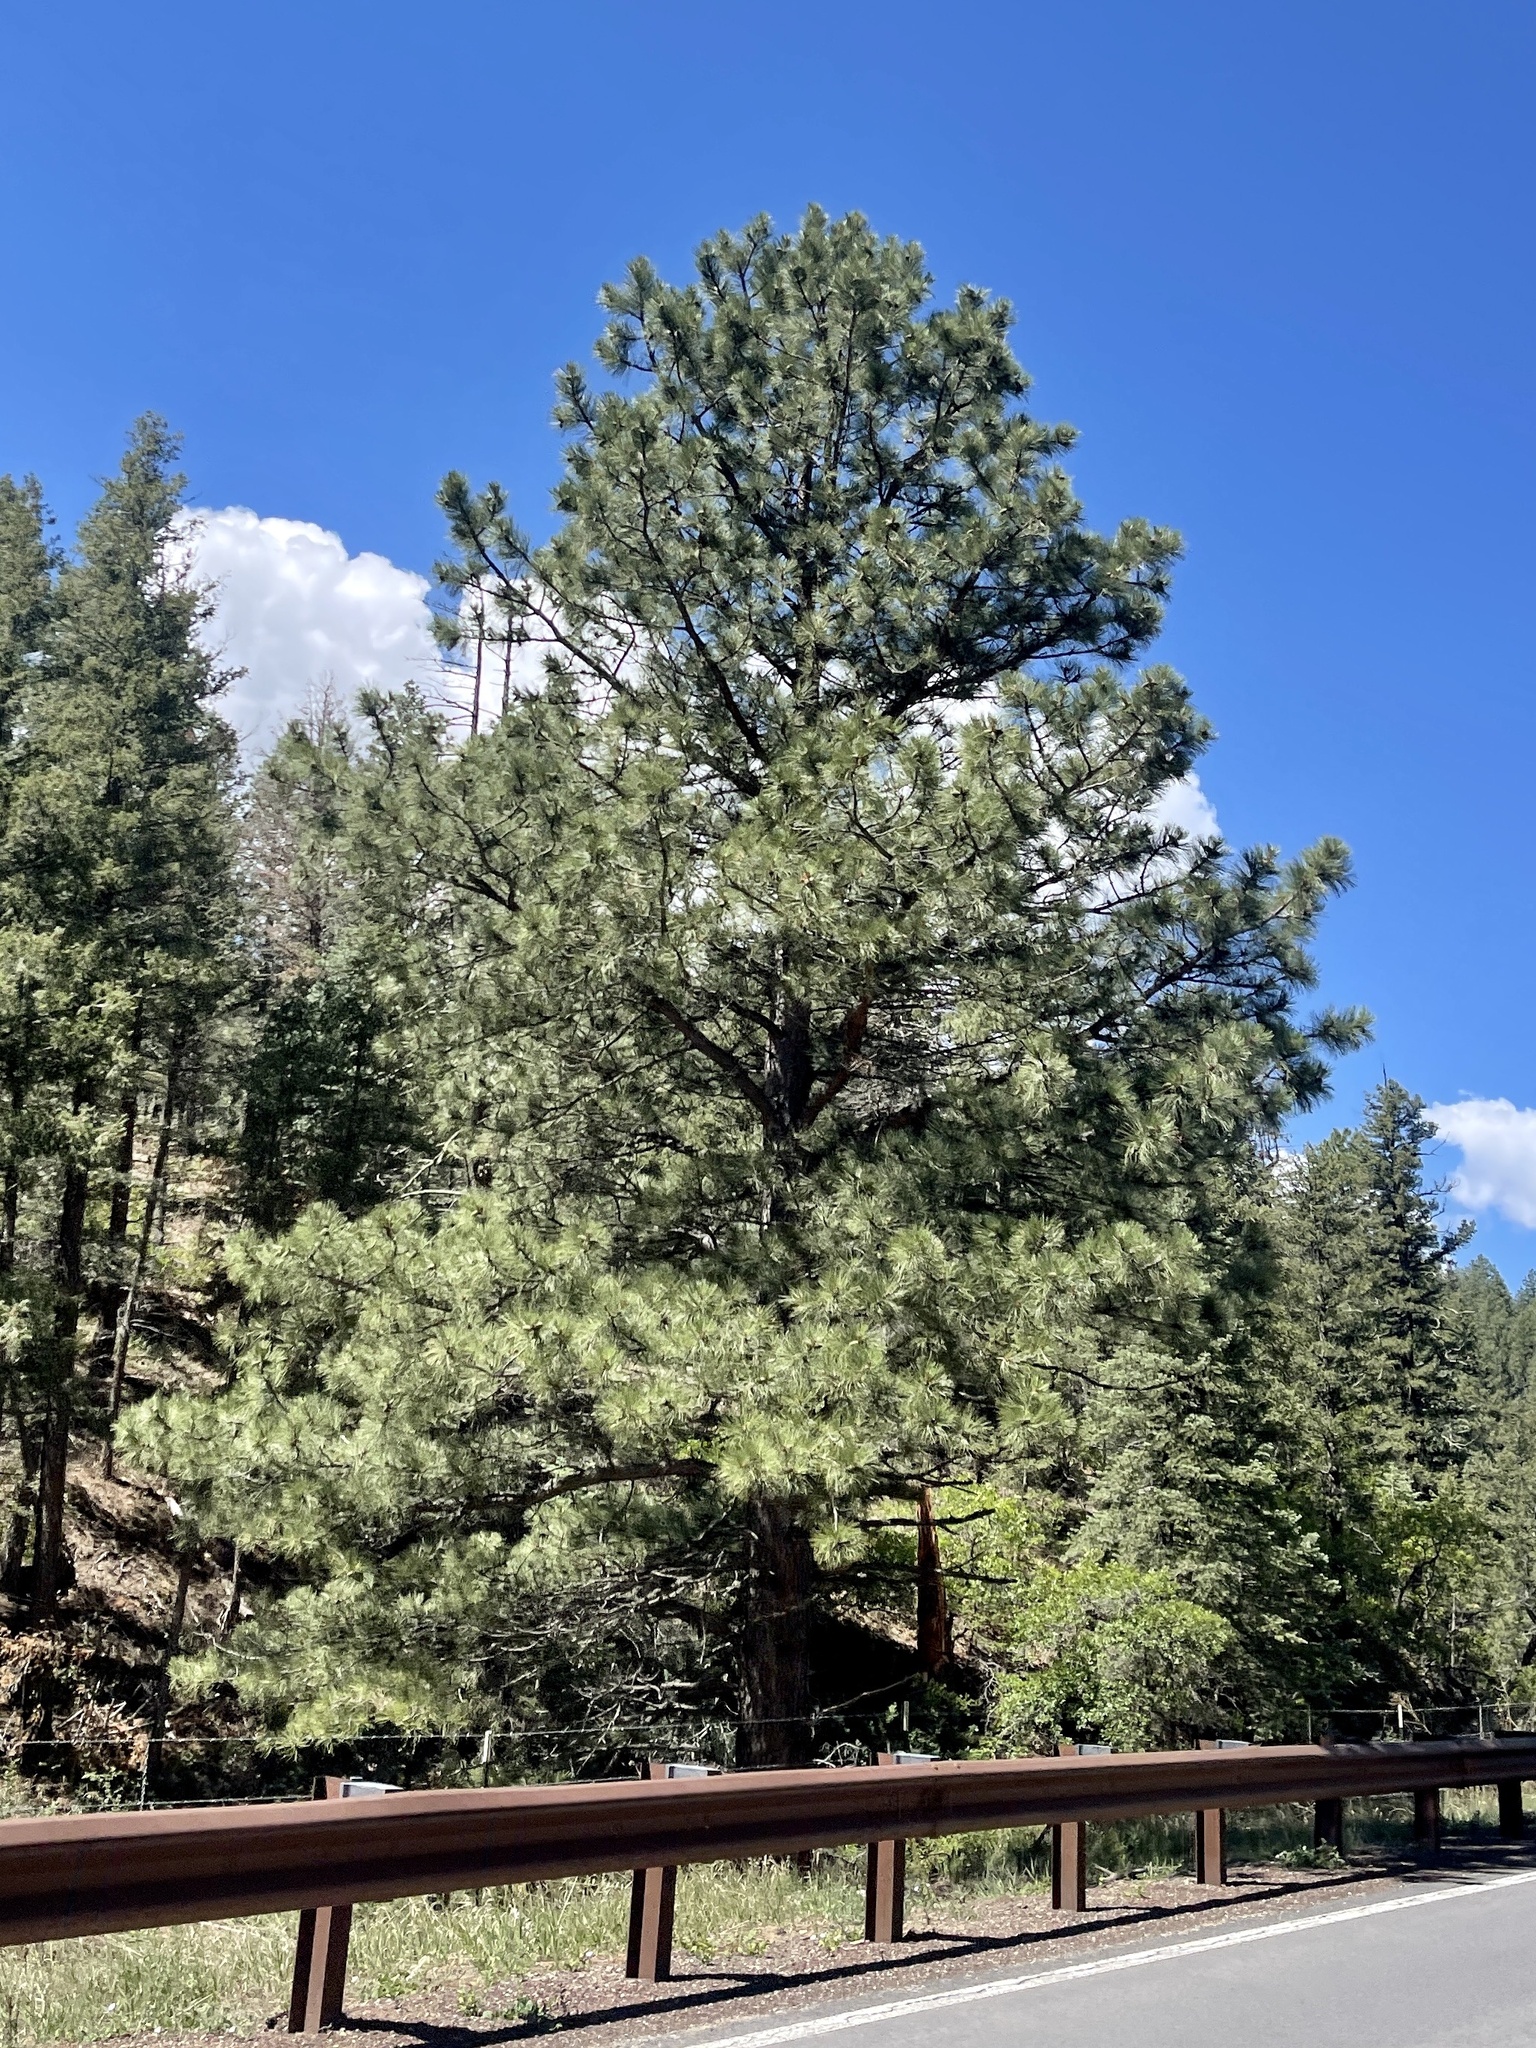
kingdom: Plantae
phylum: Tracheophyta
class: Pinopsida
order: Pinales
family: Pinaceae
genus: Pinus
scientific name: Pinus ponderosa
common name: Western yellow-pine
